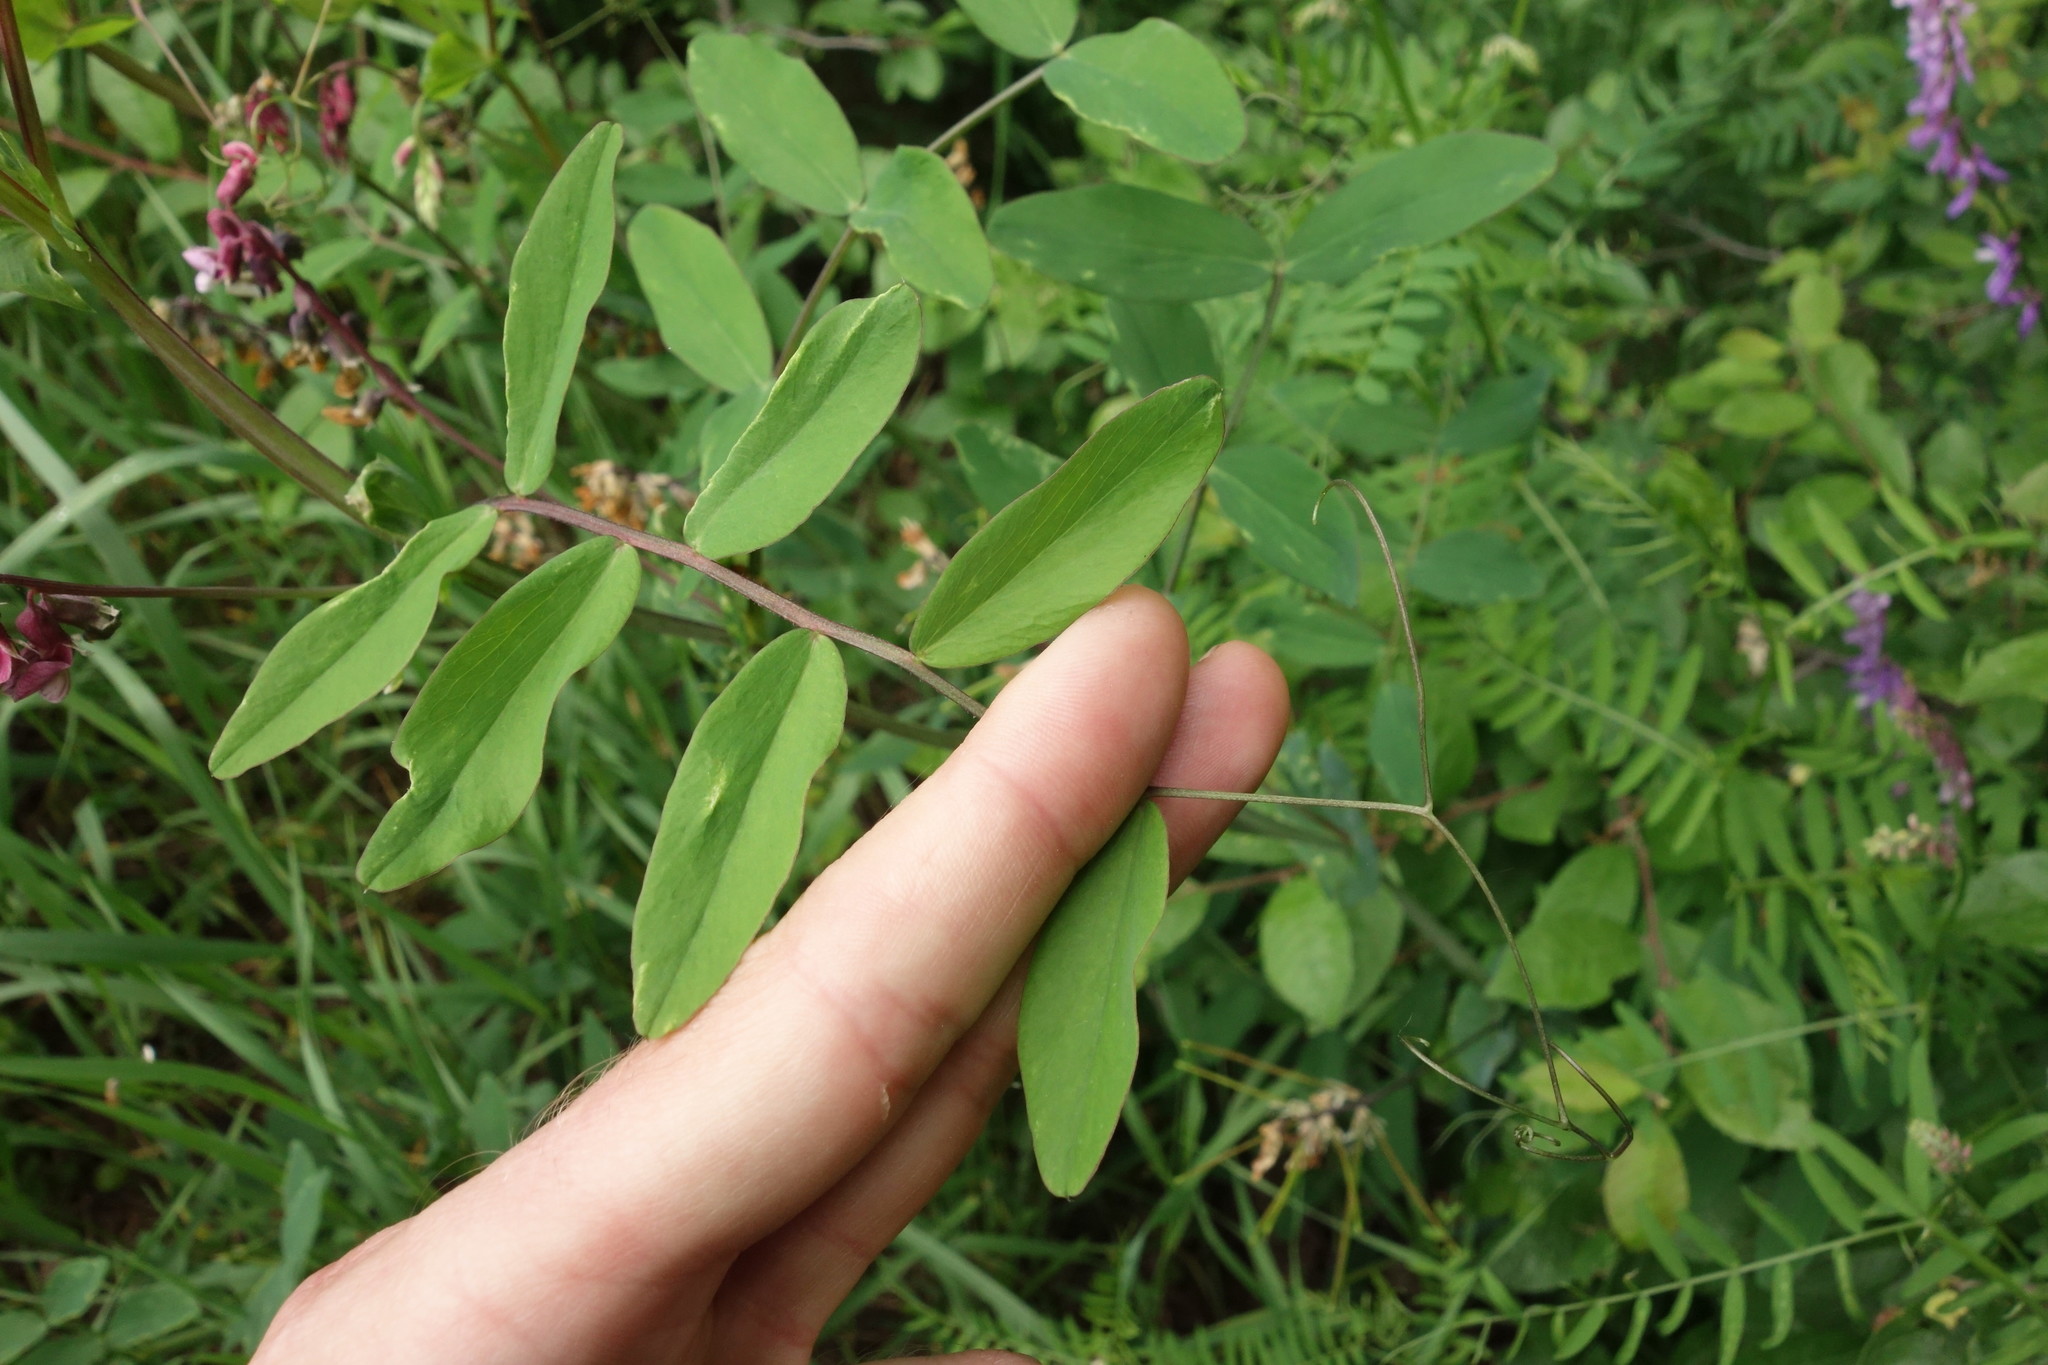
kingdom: Plantae
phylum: Tracheophyta
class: Magnoliopsida
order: Fabales
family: Fabaceae
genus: Lathyrus
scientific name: Lathyrus pisiformis
